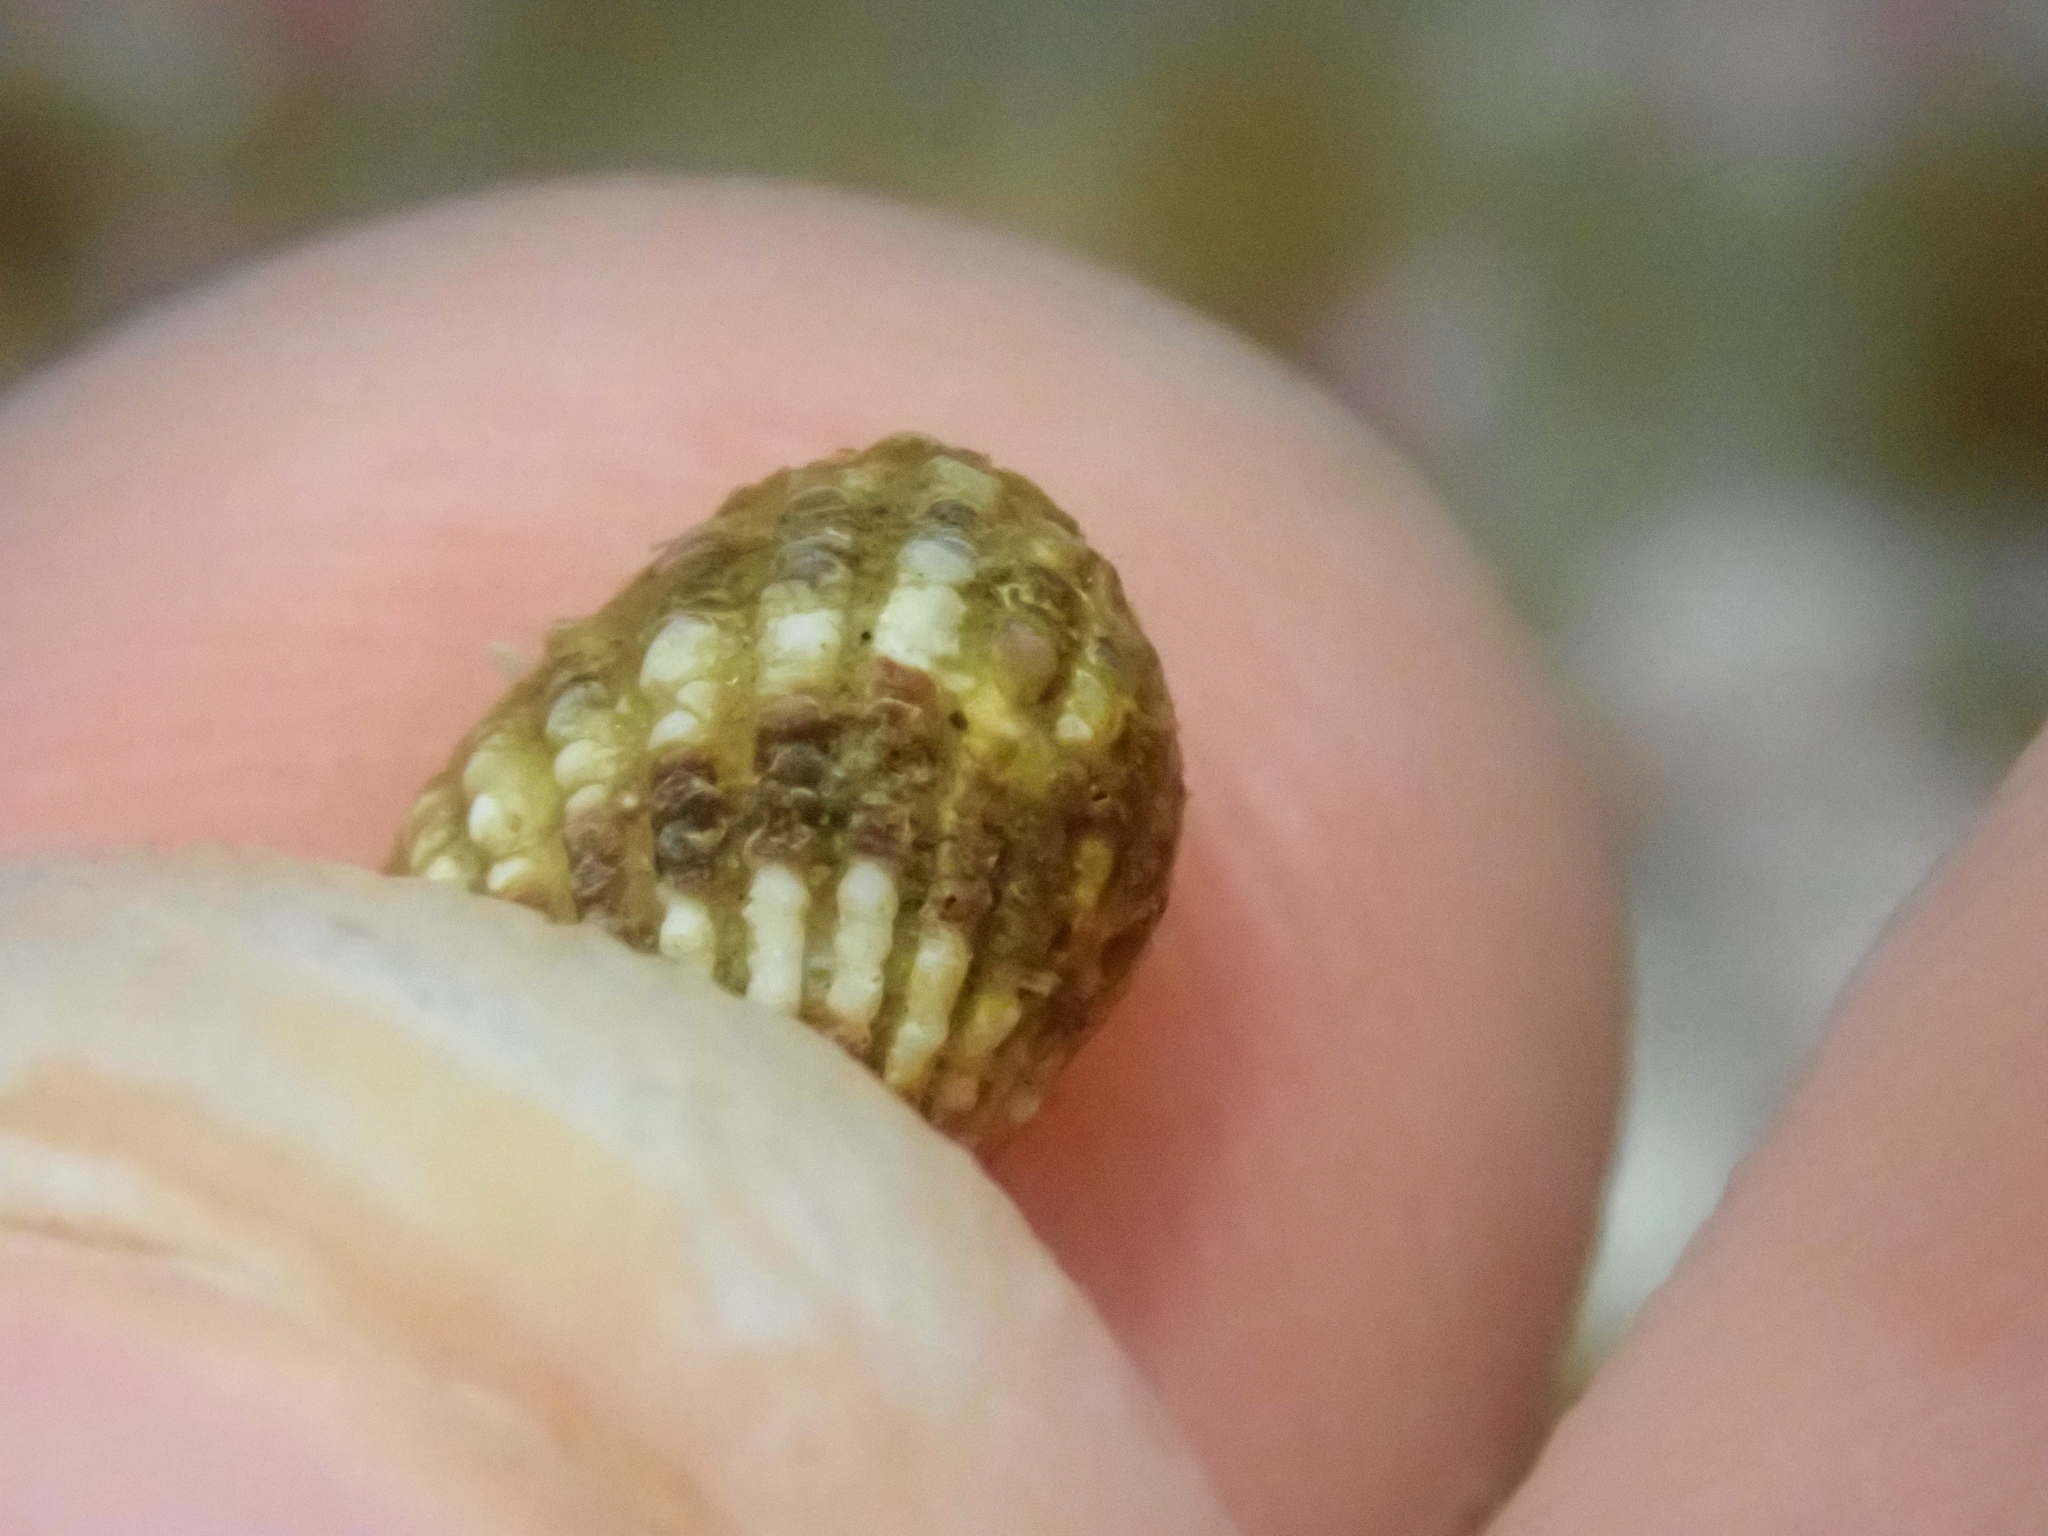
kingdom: Animalia
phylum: Mollusca
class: Bivalvia
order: Carditida
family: Carditidae
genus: Glans
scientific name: Glans carpenteri
